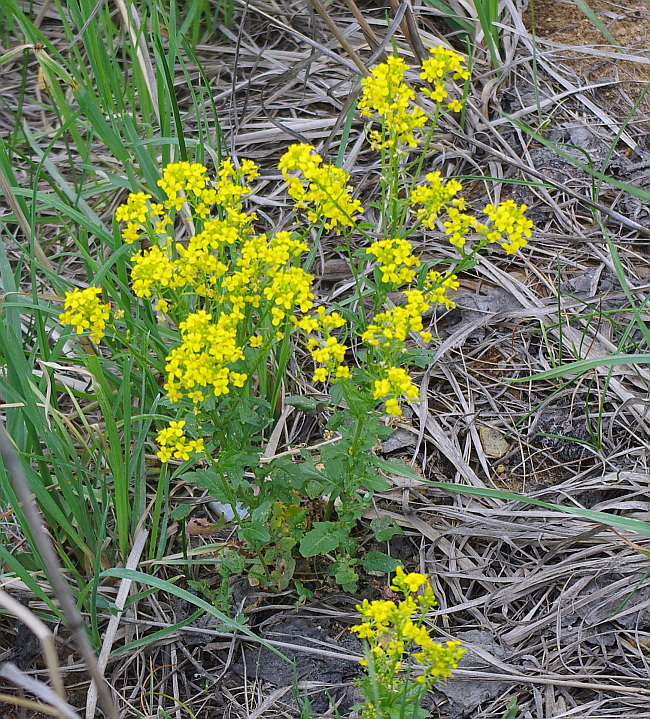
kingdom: Plantae
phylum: Tracheophyta
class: Magnoliopsida
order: Brassicales
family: Brassicaceae
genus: Barbarea
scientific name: Barbarea vulgaris
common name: Cressy-greens
